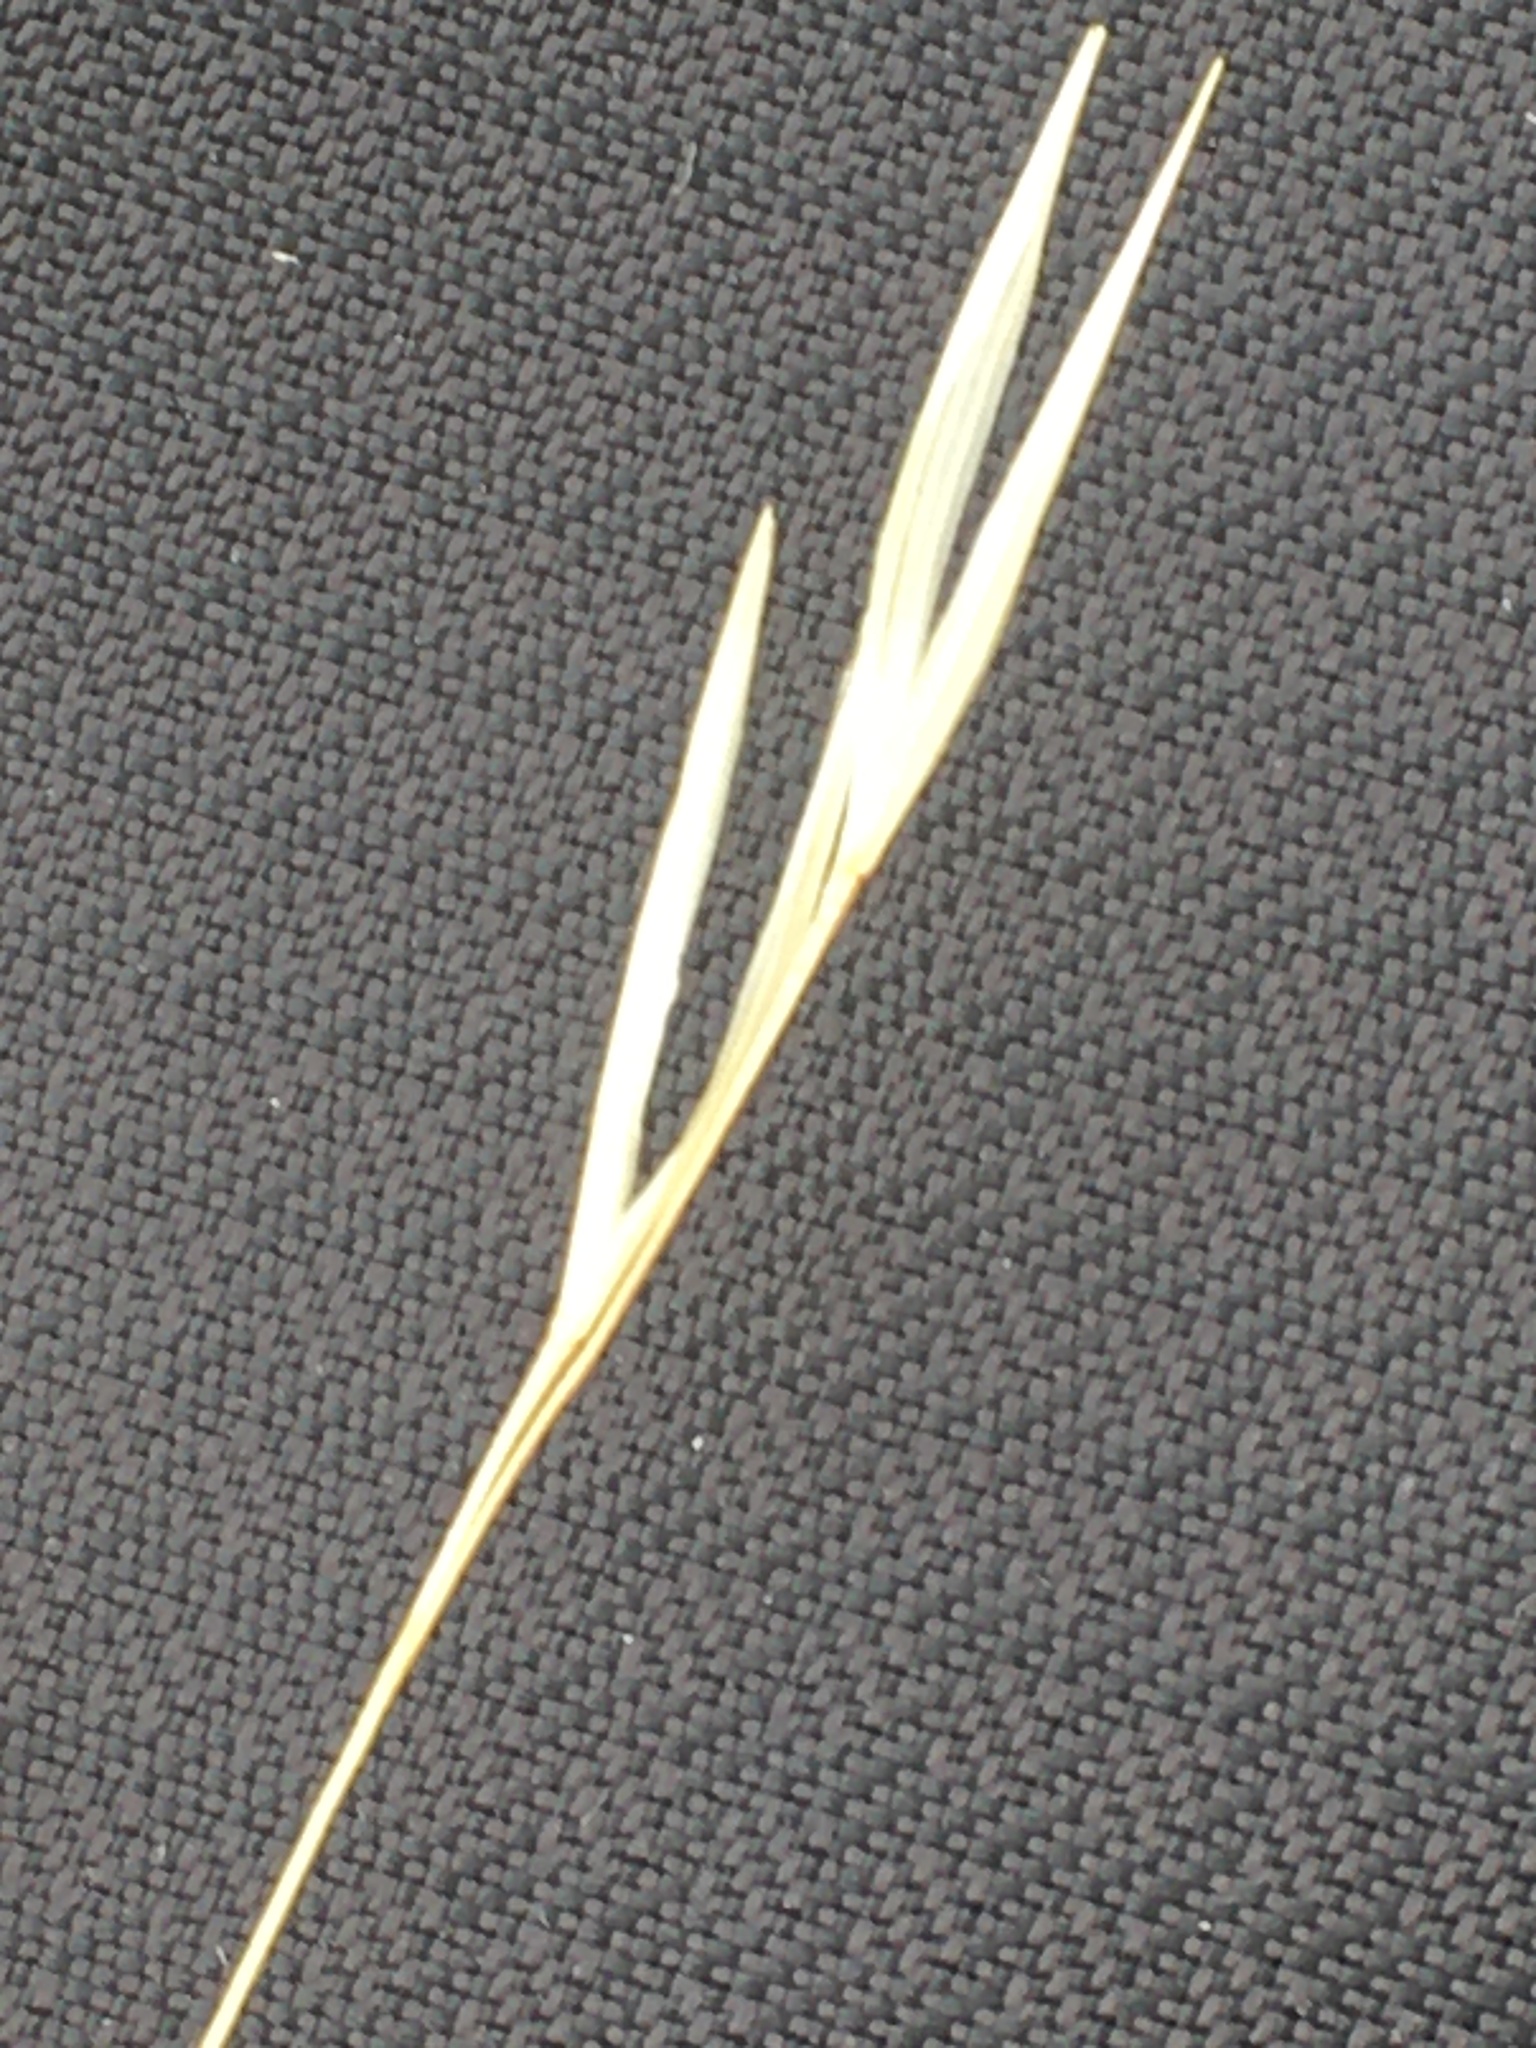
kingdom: Plantae
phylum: Tracheophyta
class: Liliopsida
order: Poales
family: Poaceae
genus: Hesperostipa
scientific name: Hesperostipa curtiseta
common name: Canada needle-and-thread grass
